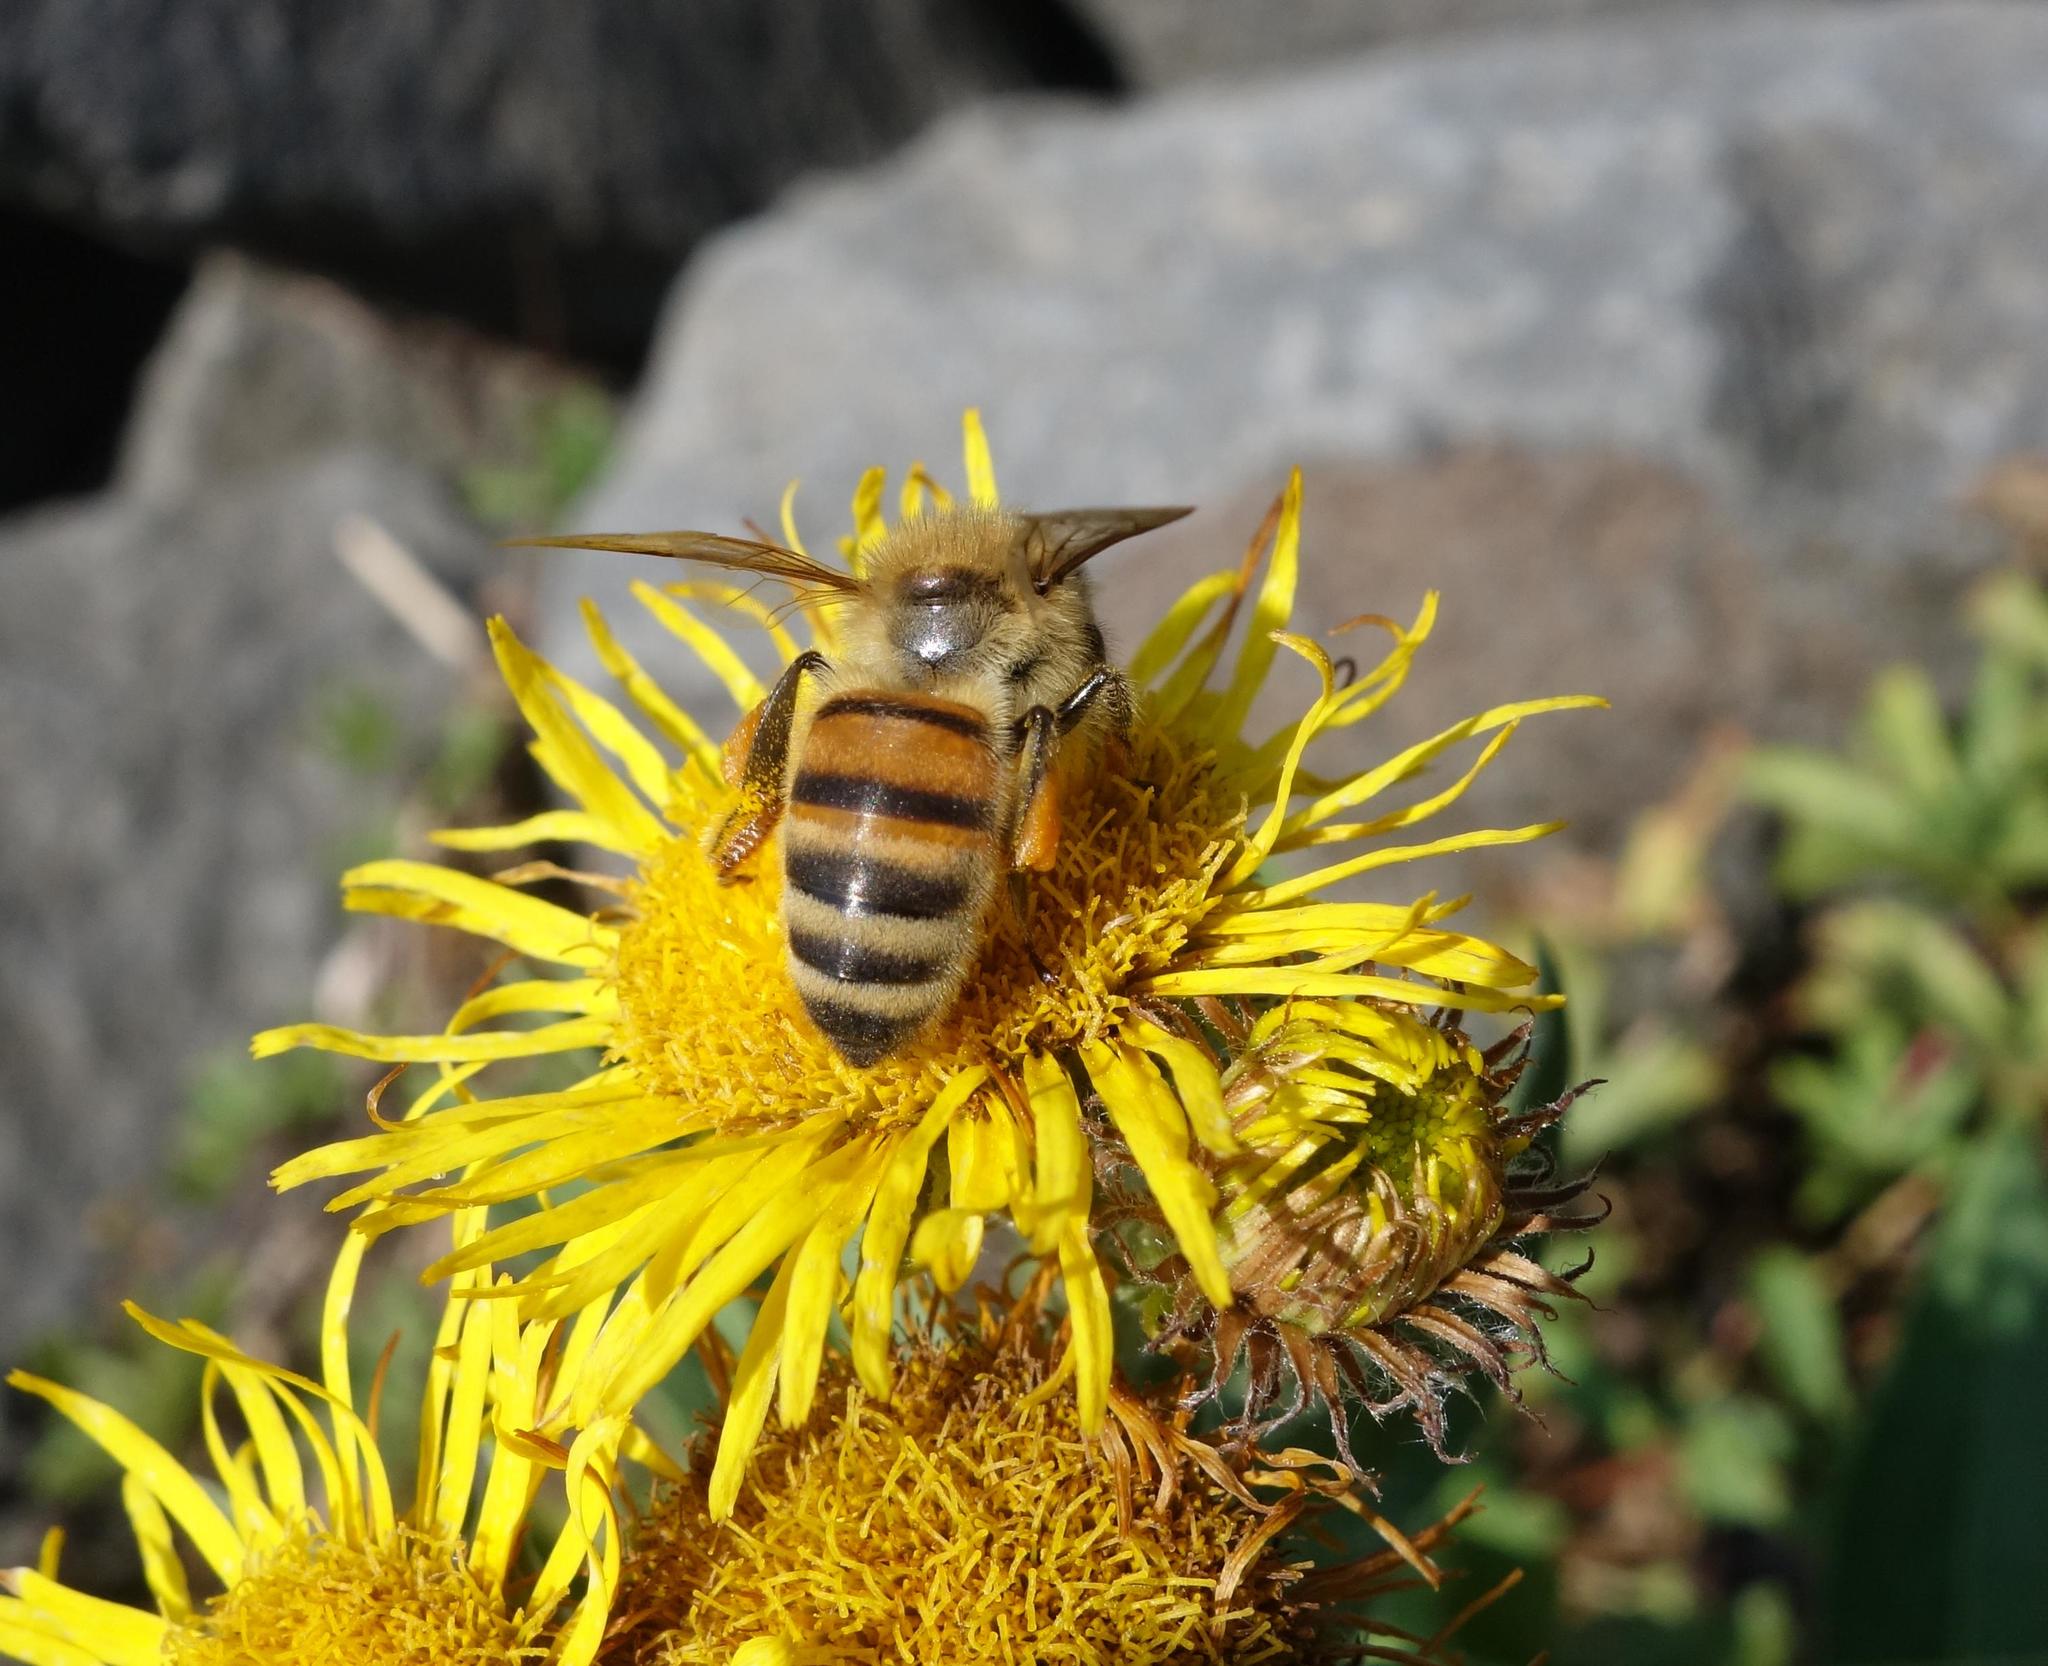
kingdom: Animalia
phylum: Arthropoda
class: Insecta
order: Hymenoptera
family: Apidae
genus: Apis
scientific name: Apis mellifera
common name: Honey bee
